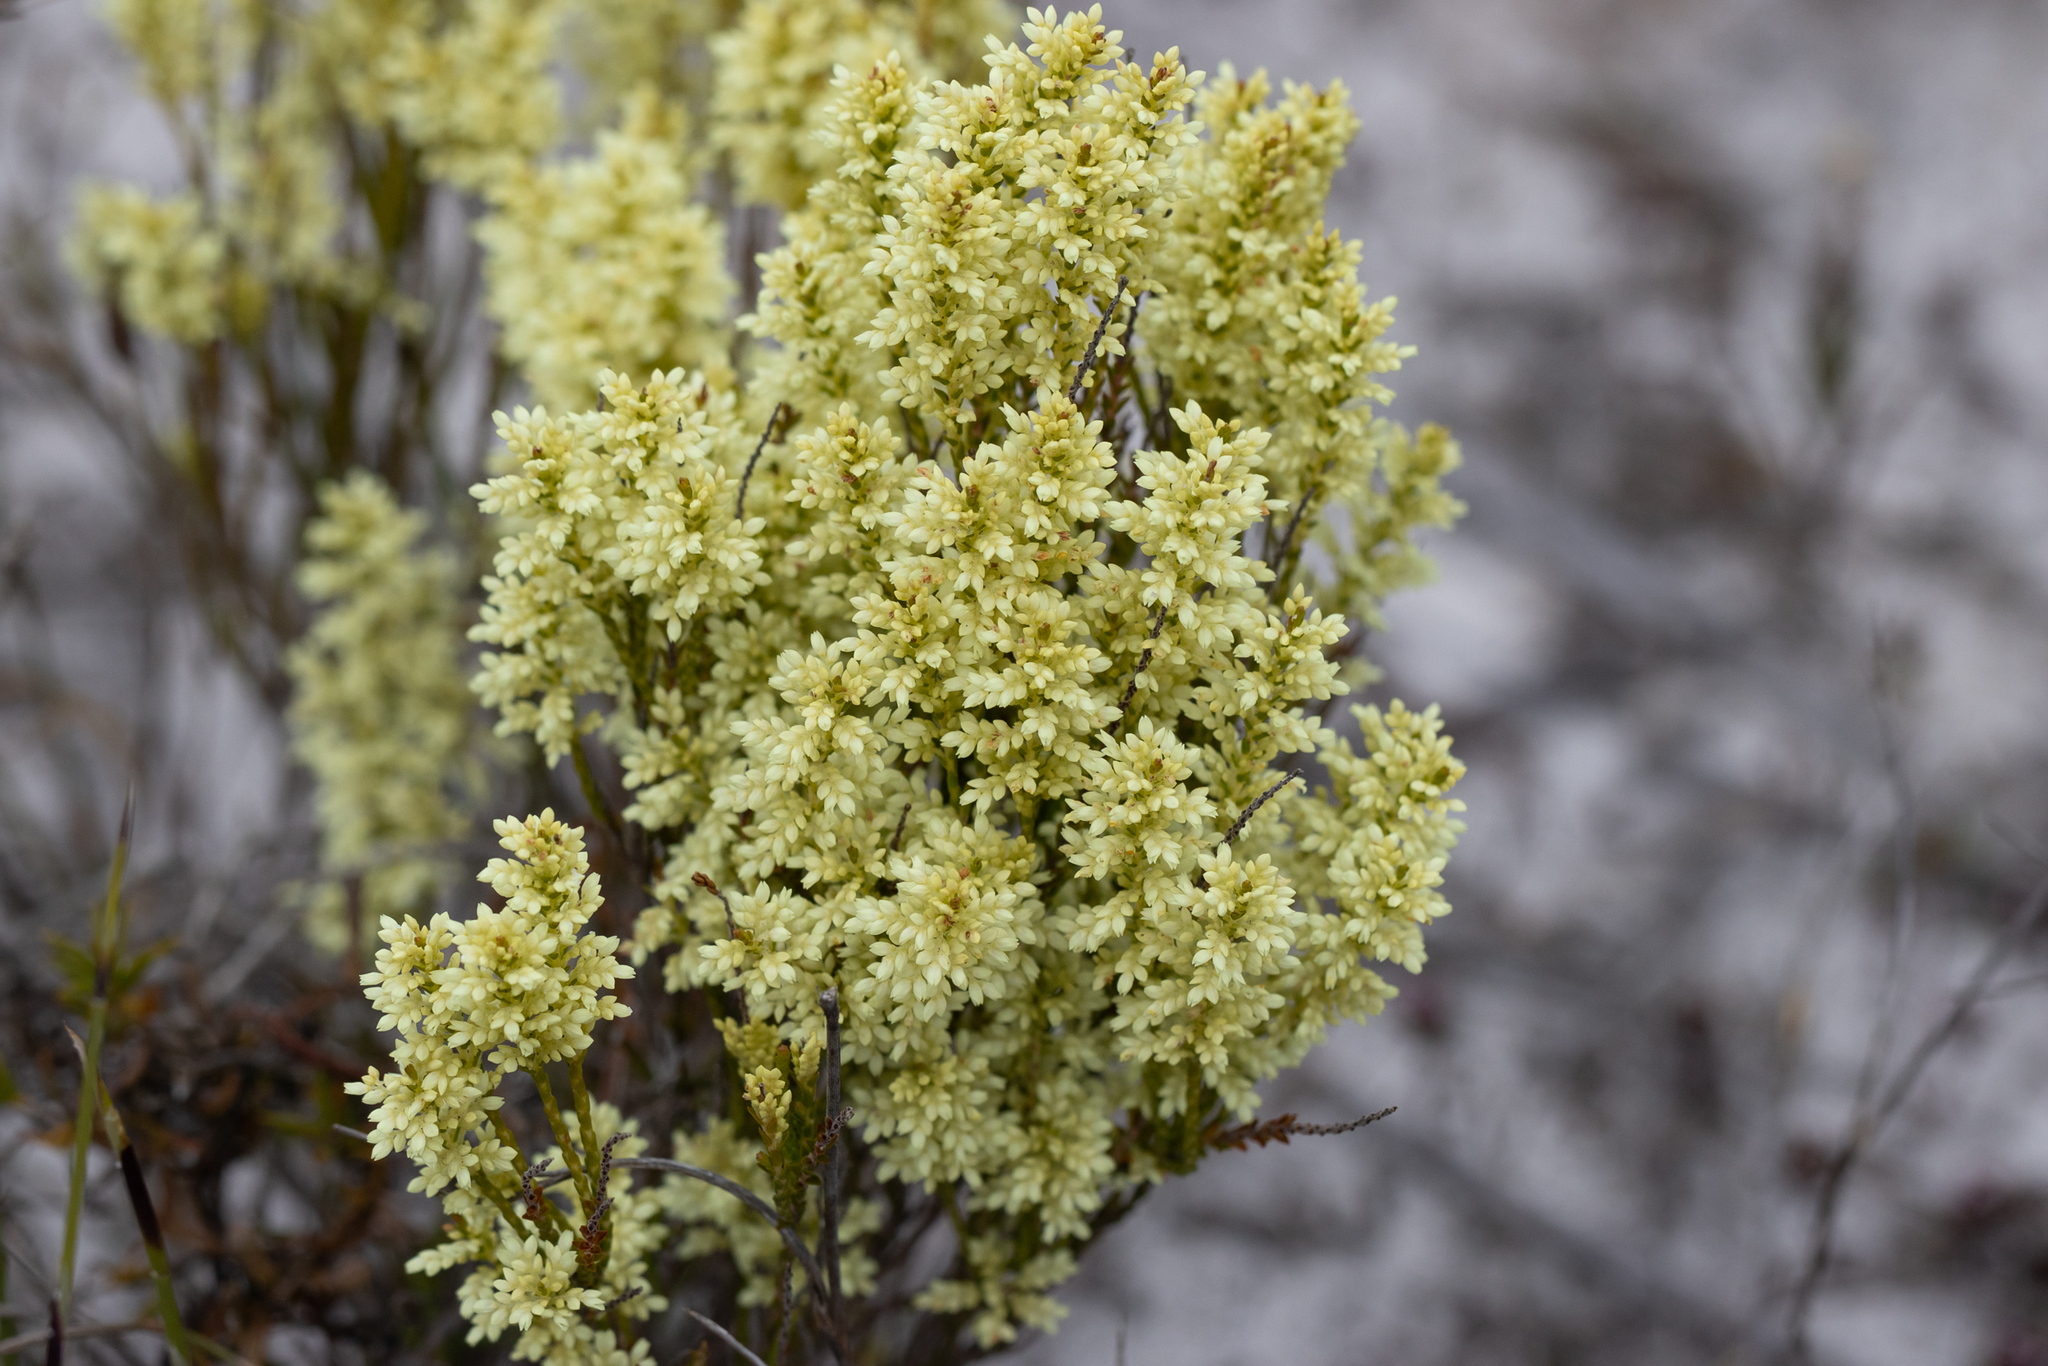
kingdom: Plantae
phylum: Tracheophyta
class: Magnoliopsida
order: Ericales
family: Ericaceae
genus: Oligarrhena
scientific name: Oligarrhena micrantha
